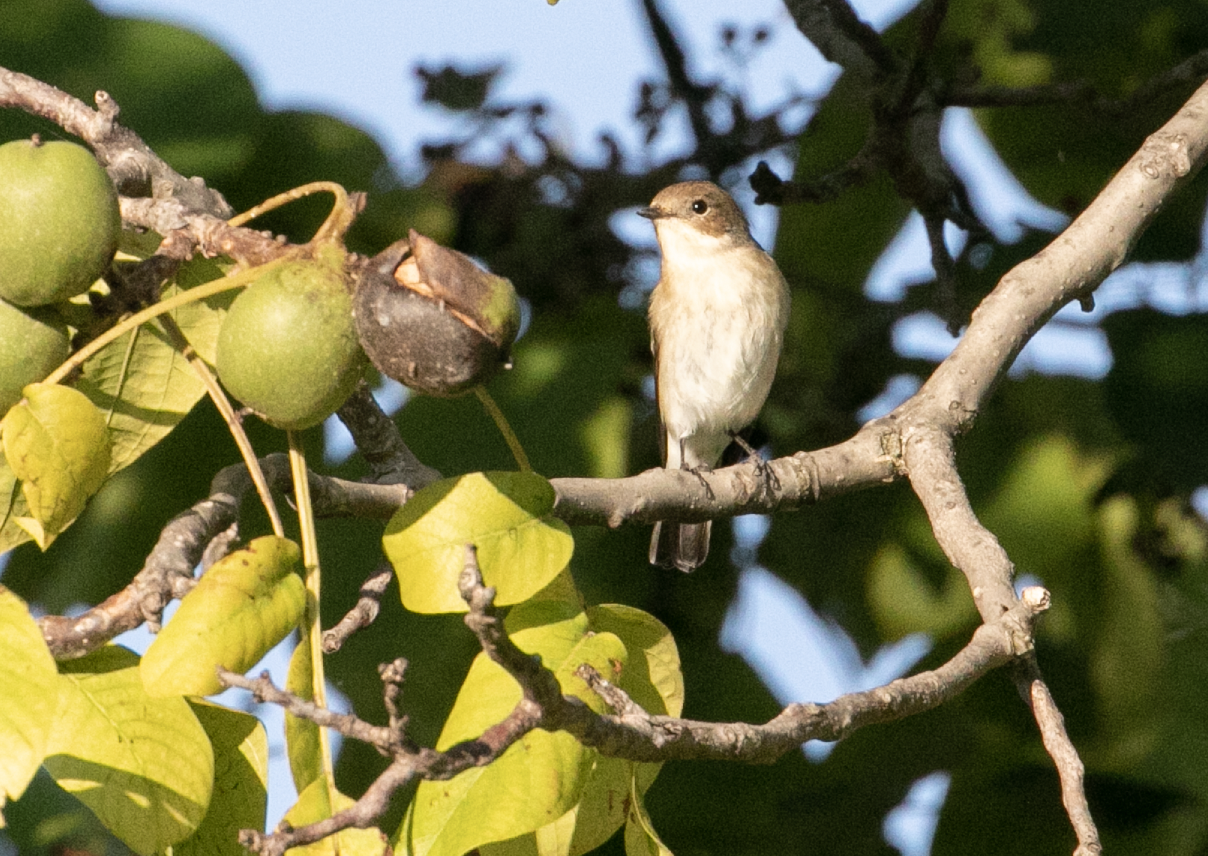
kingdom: Animalia
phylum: Chordata
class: Aves
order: Passeriformes
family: Muscicapidae
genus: Ficedula
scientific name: Ficedula hypoleuca
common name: European pied flycatcher
